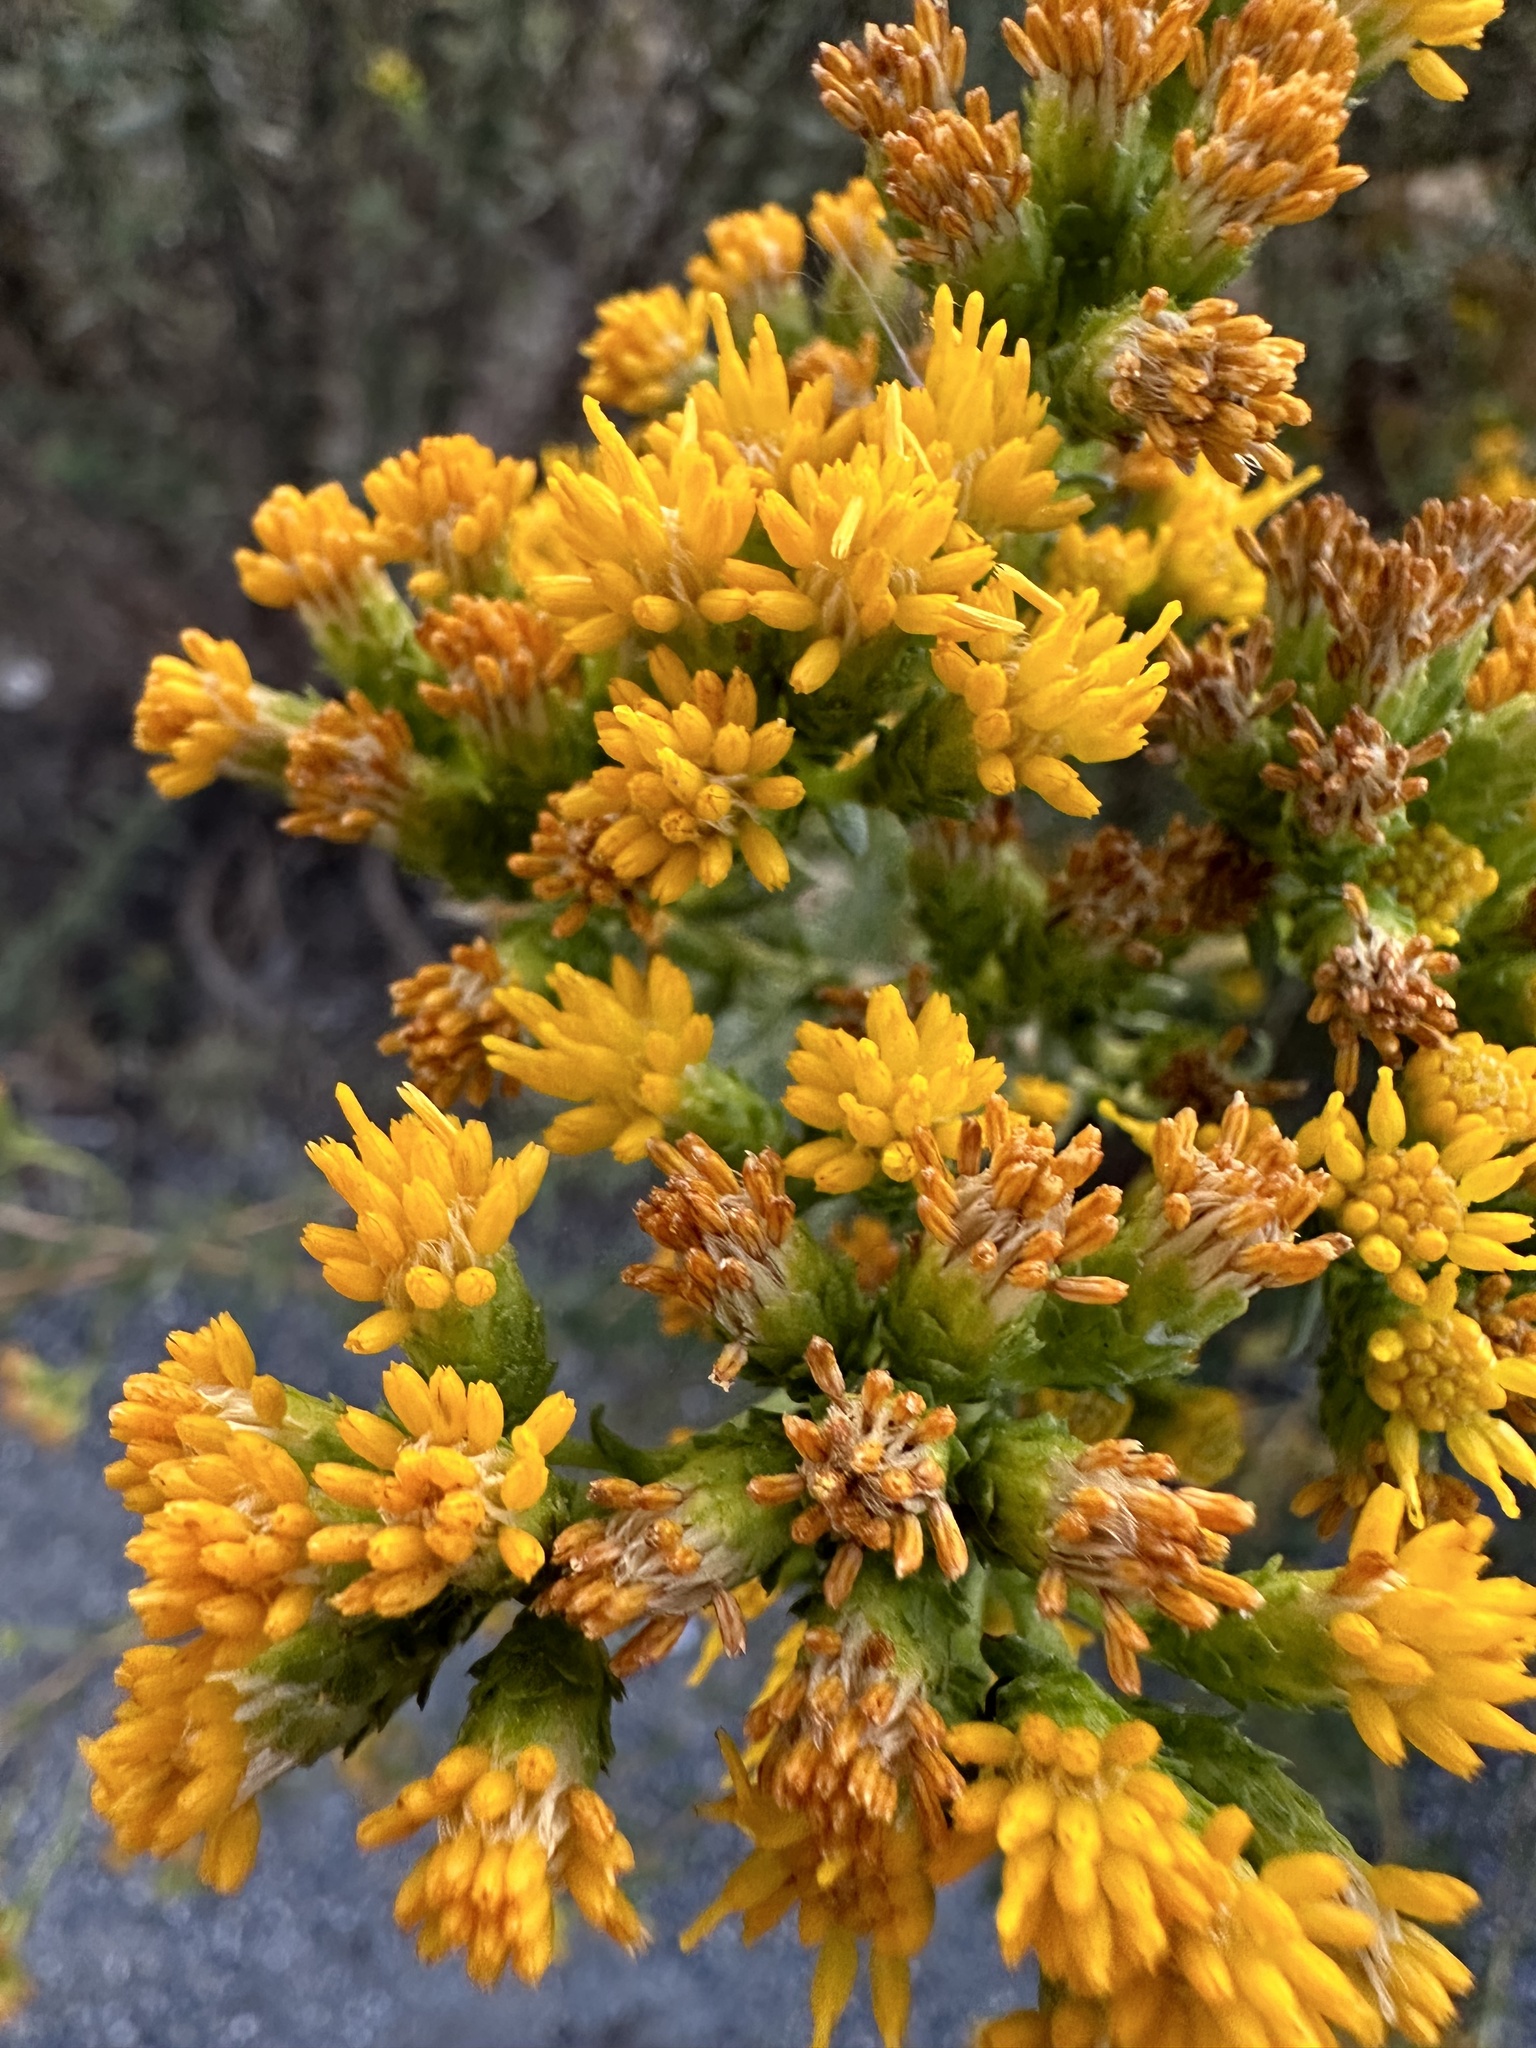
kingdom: Plantae
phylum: Tracheophyta
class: Magnoliopsida
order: Asterales
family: Asteraceae
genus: Isocoma
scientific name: Isocoma menziesii
